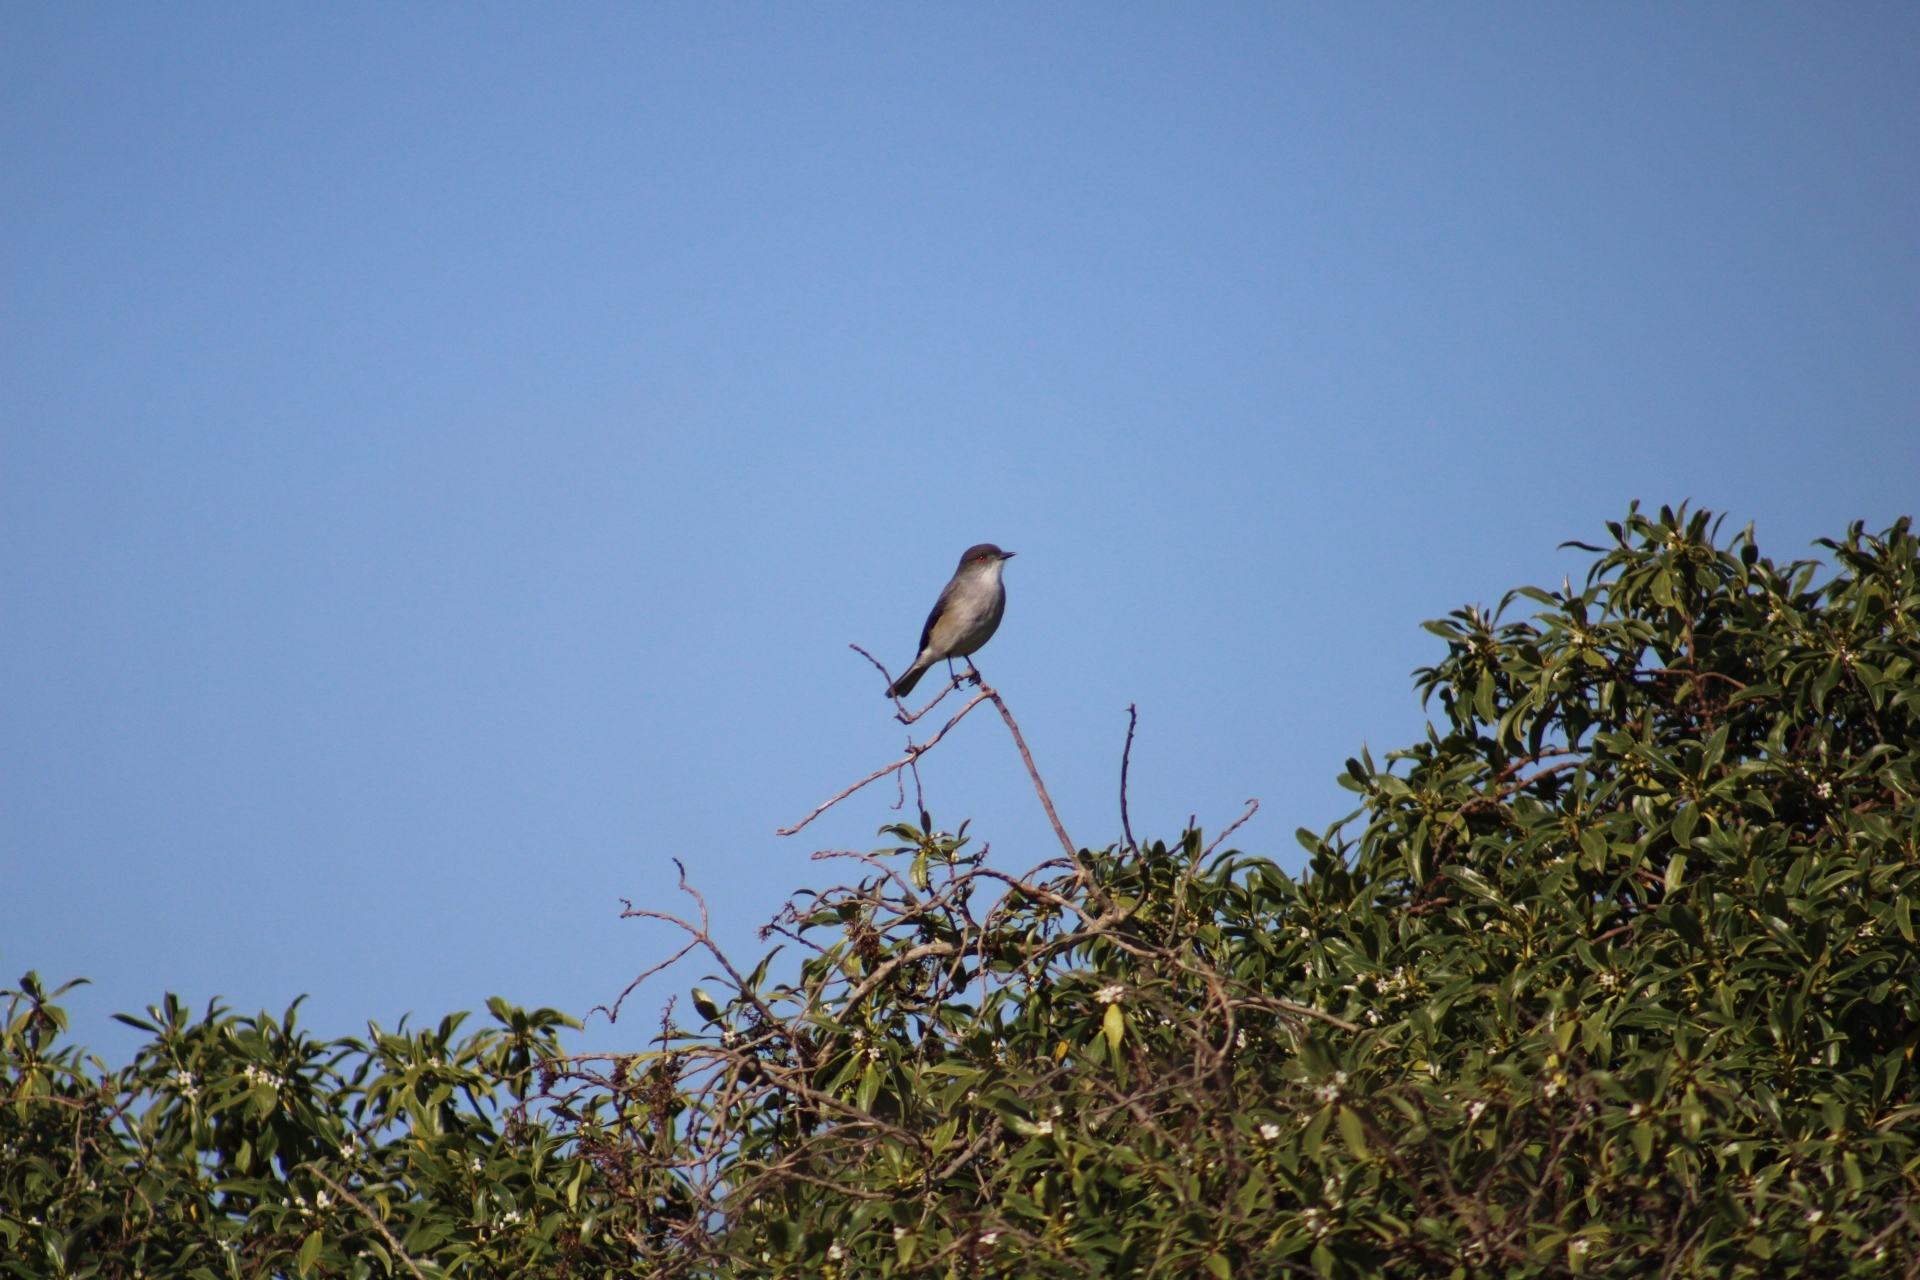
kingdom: Animalia
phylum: Chordata
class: Aves
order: Passeriformes
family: Tyrannidae
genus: Xolmis
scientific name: Xolmis pyrope
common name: Fire-eyed diucon
